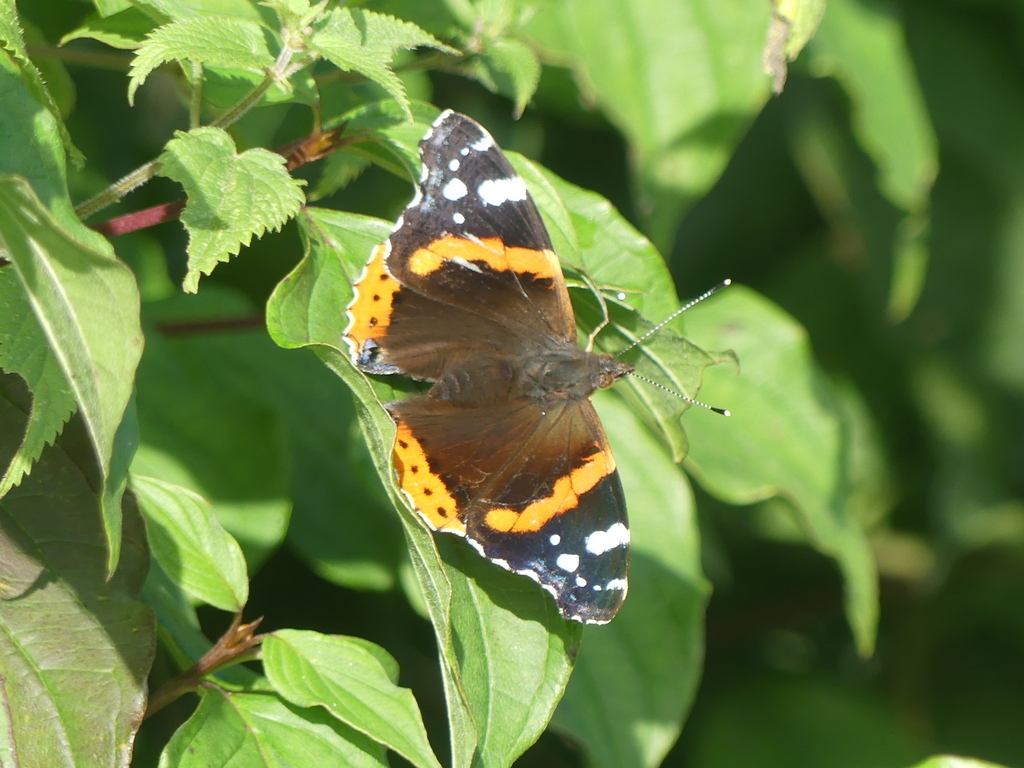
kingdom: Animalia
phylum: Arthropoda
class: Insecta
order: Lepidoptera
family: Nymphalidae
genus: Vanessa
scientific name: Vanessa atalanta
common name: Red admiral
